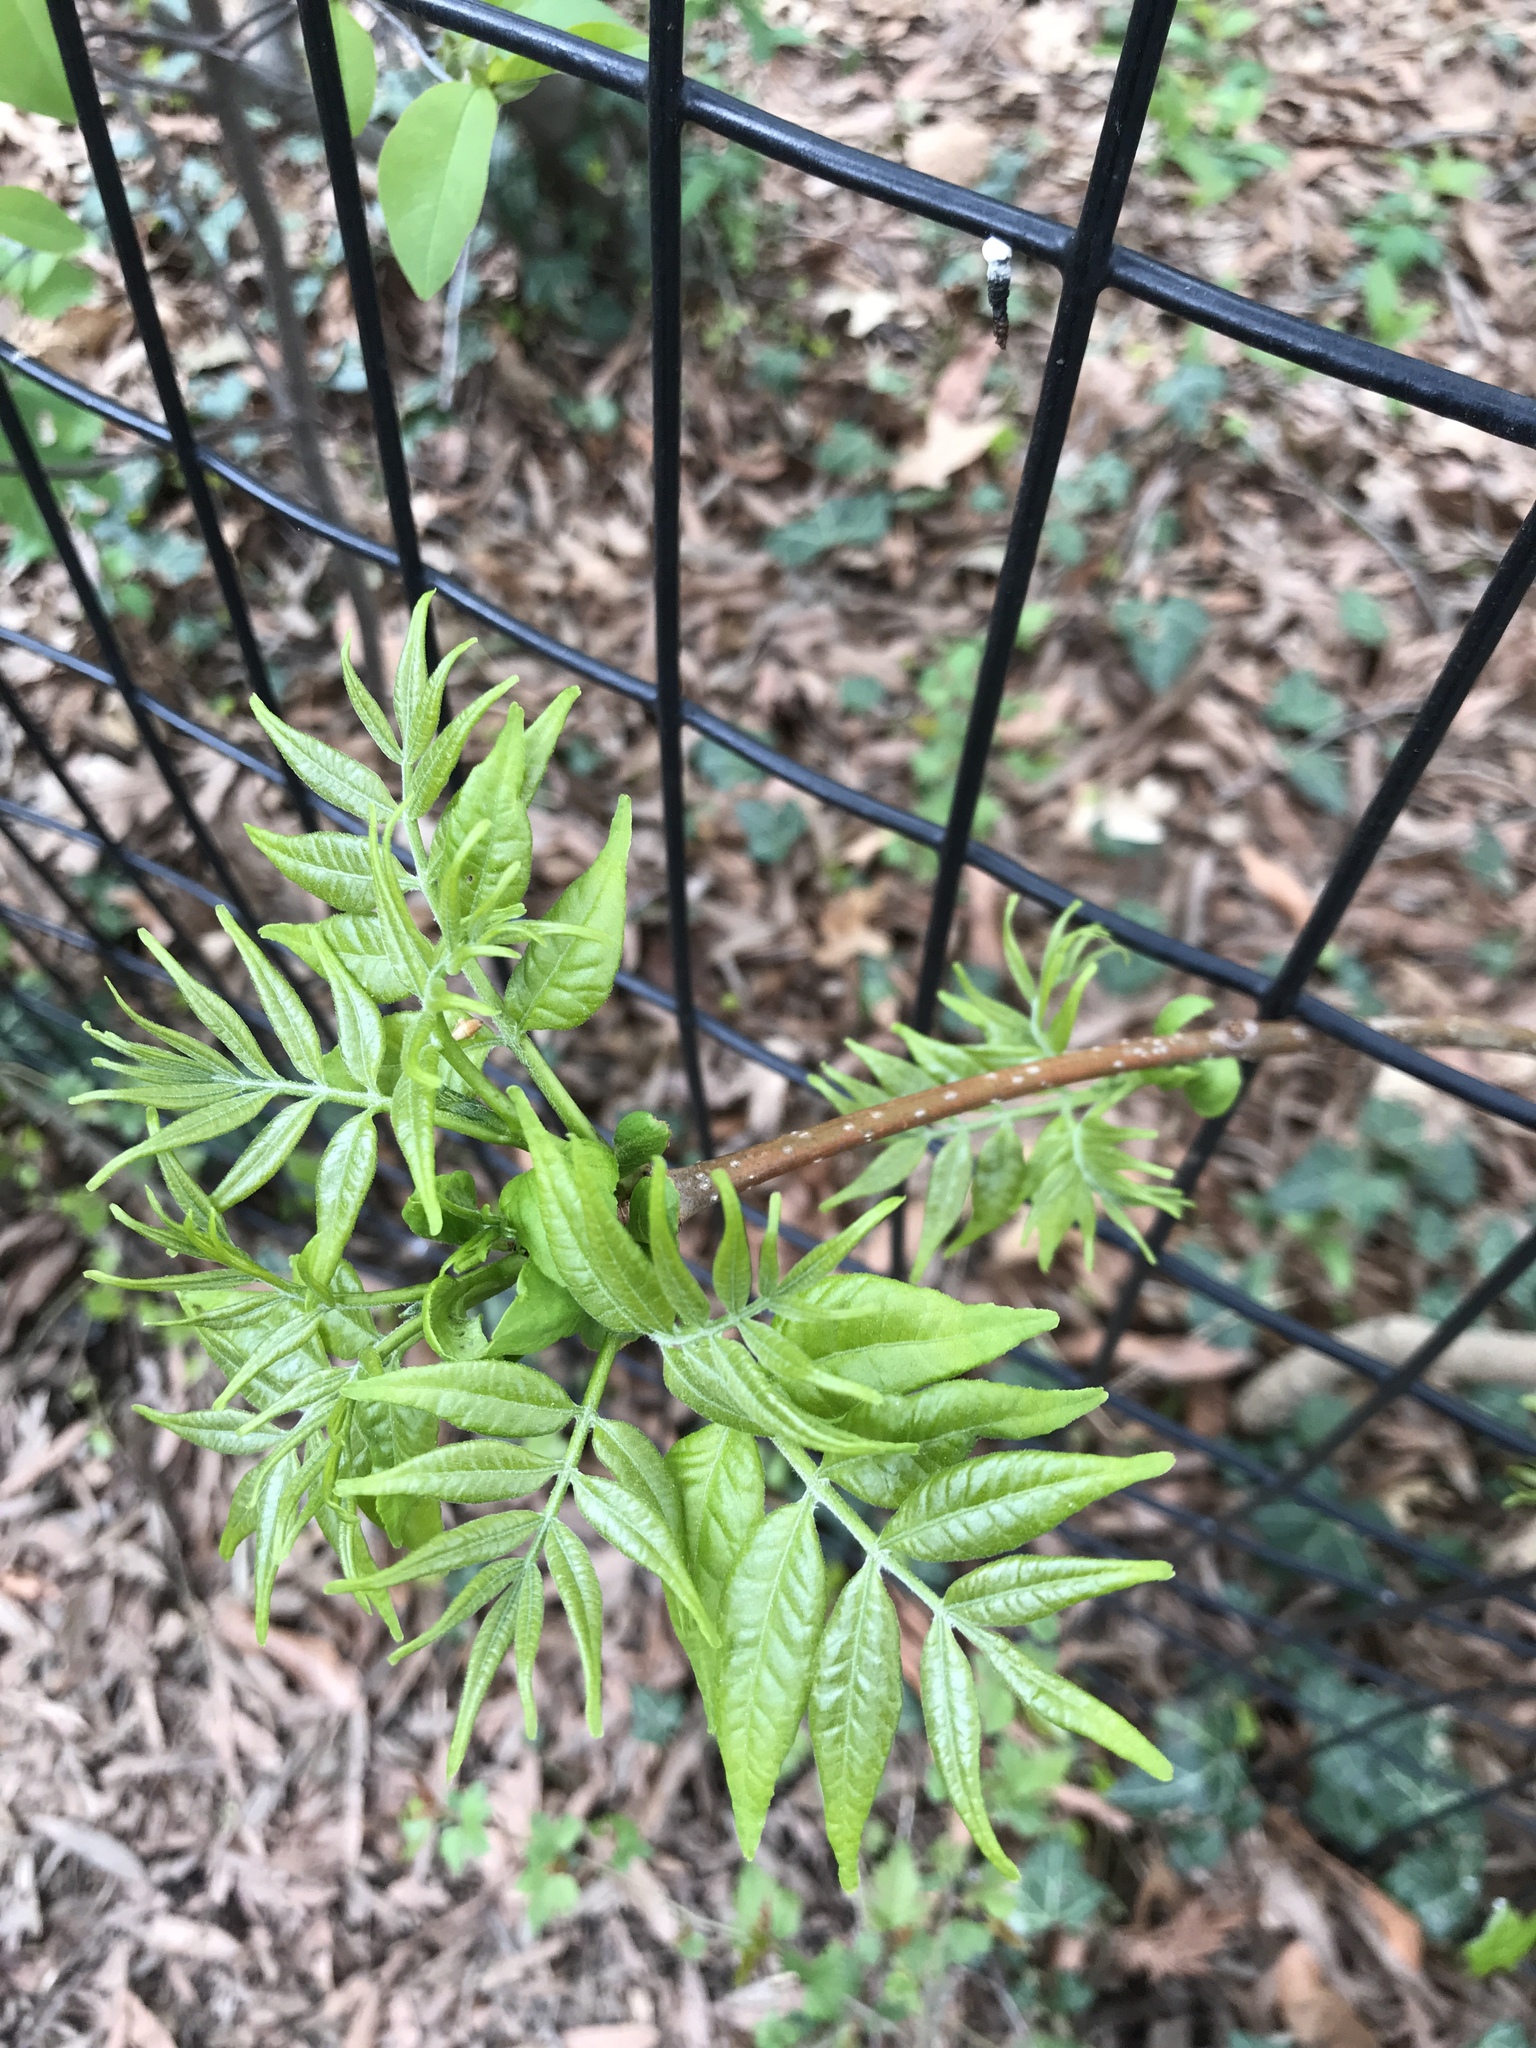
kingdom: Plantae
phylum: Tracheophyta
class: Magnoliopsida
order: Sapindales
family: Simaroubaceae
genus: Ailanthus
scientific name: Ailanthus altissima
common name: Tree-of-heaven
